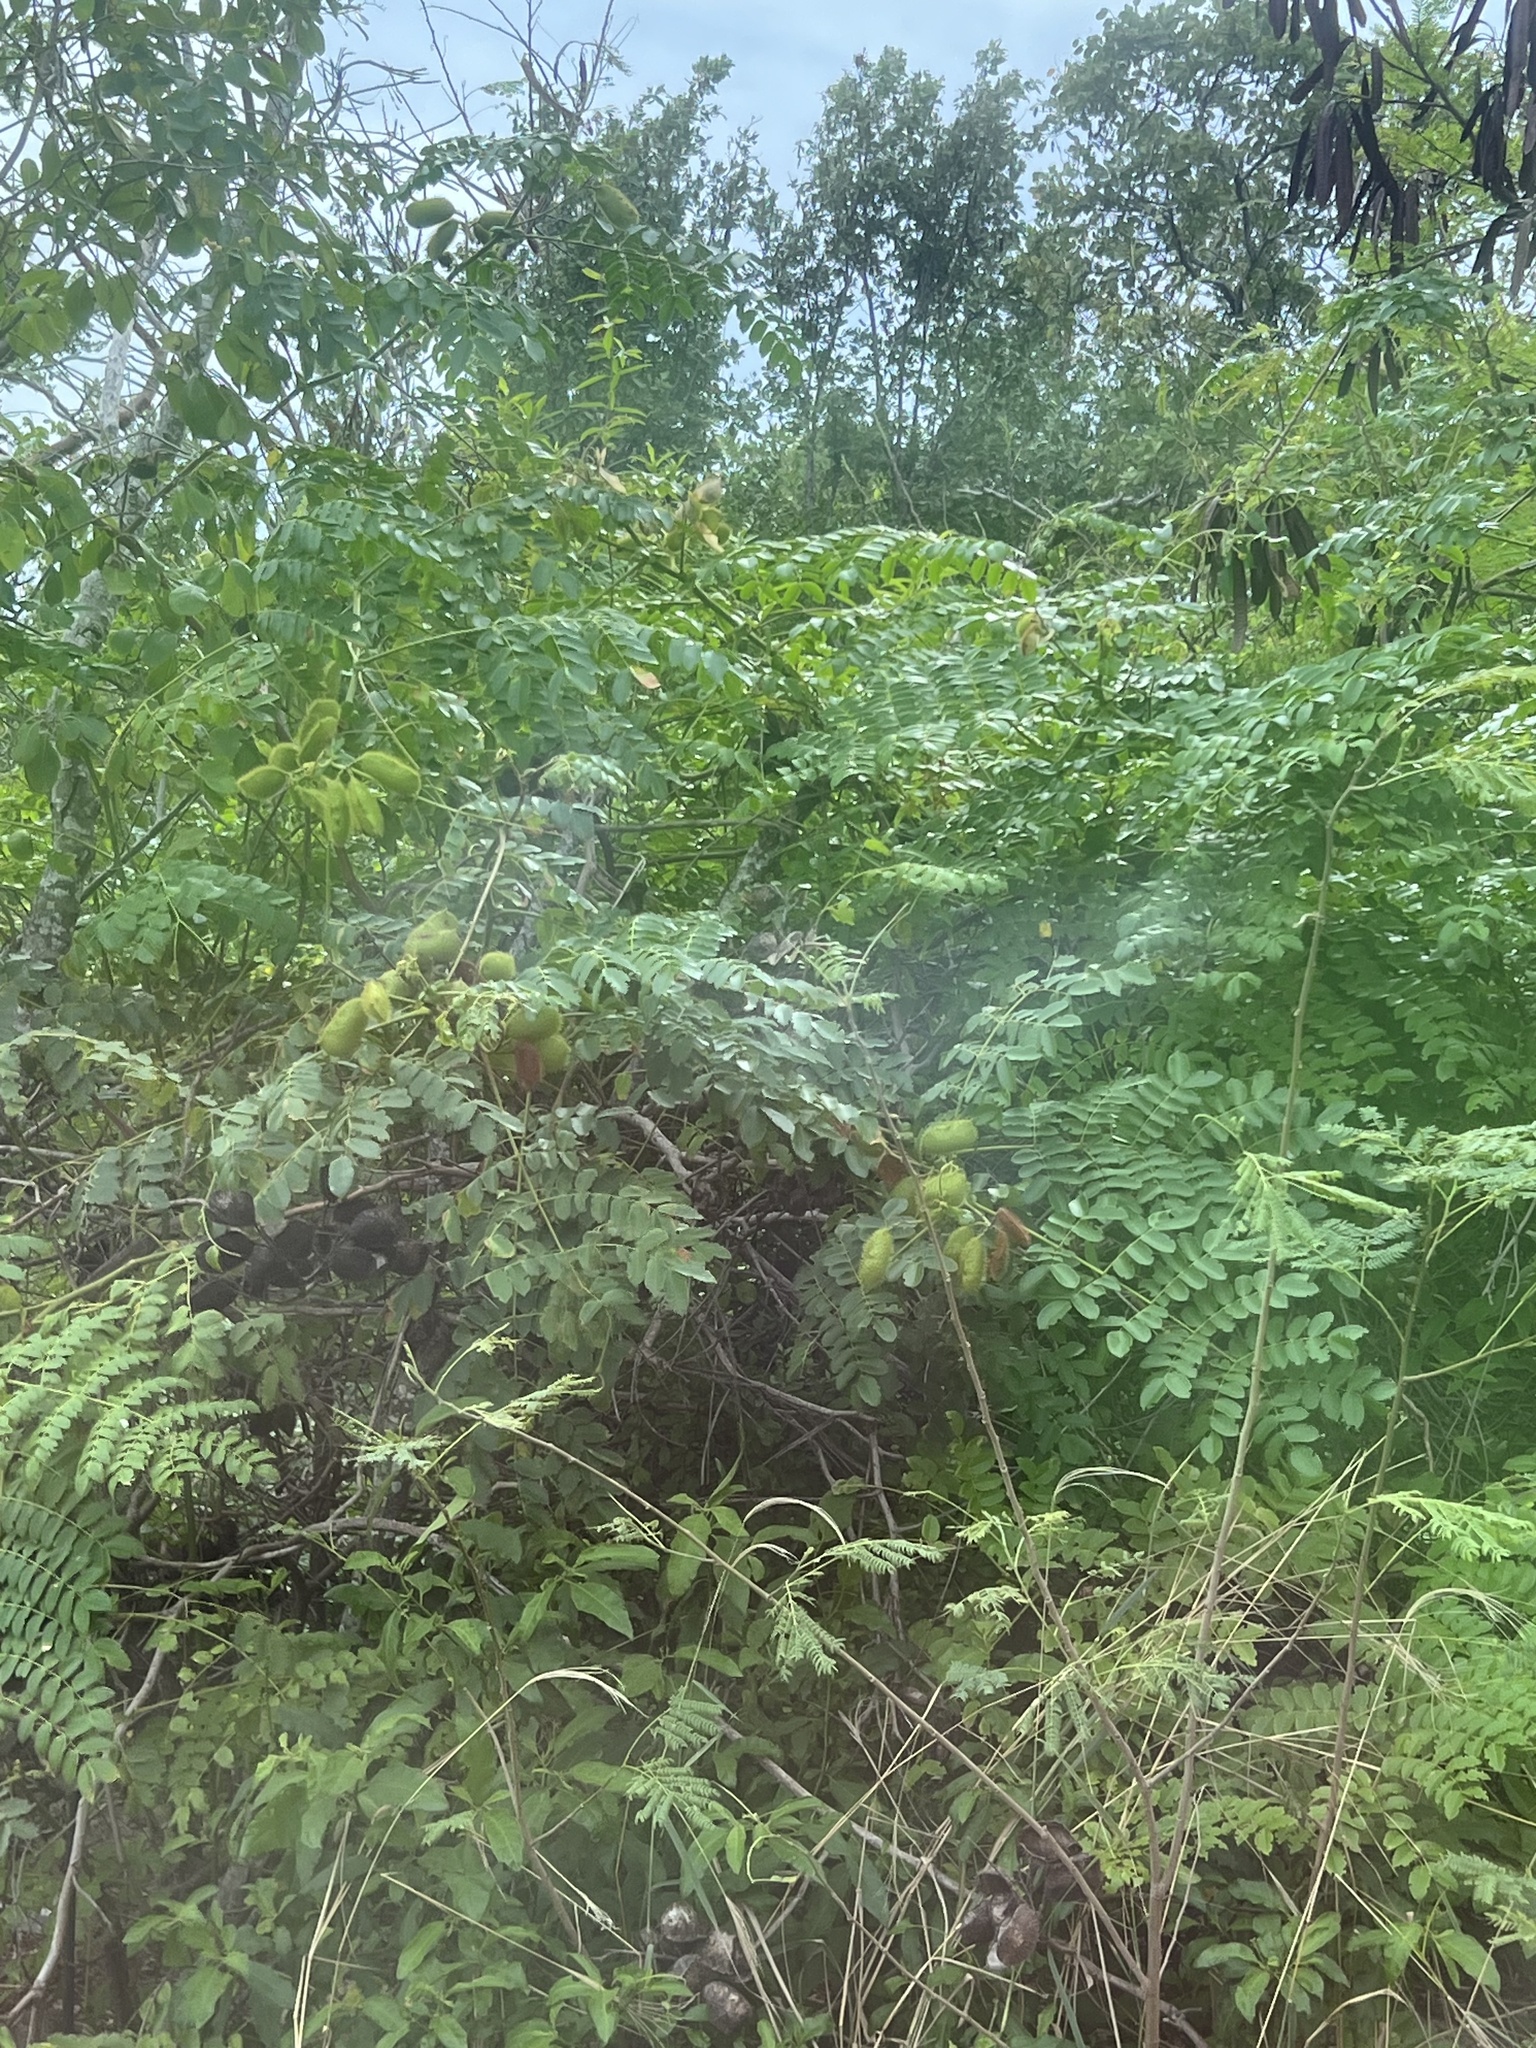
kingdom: Plantae
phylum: Tracheophyta
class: Magnoliopsida
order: Fabales
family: Fabaceae
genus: Guilandina
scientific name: Guilandina bonduc
